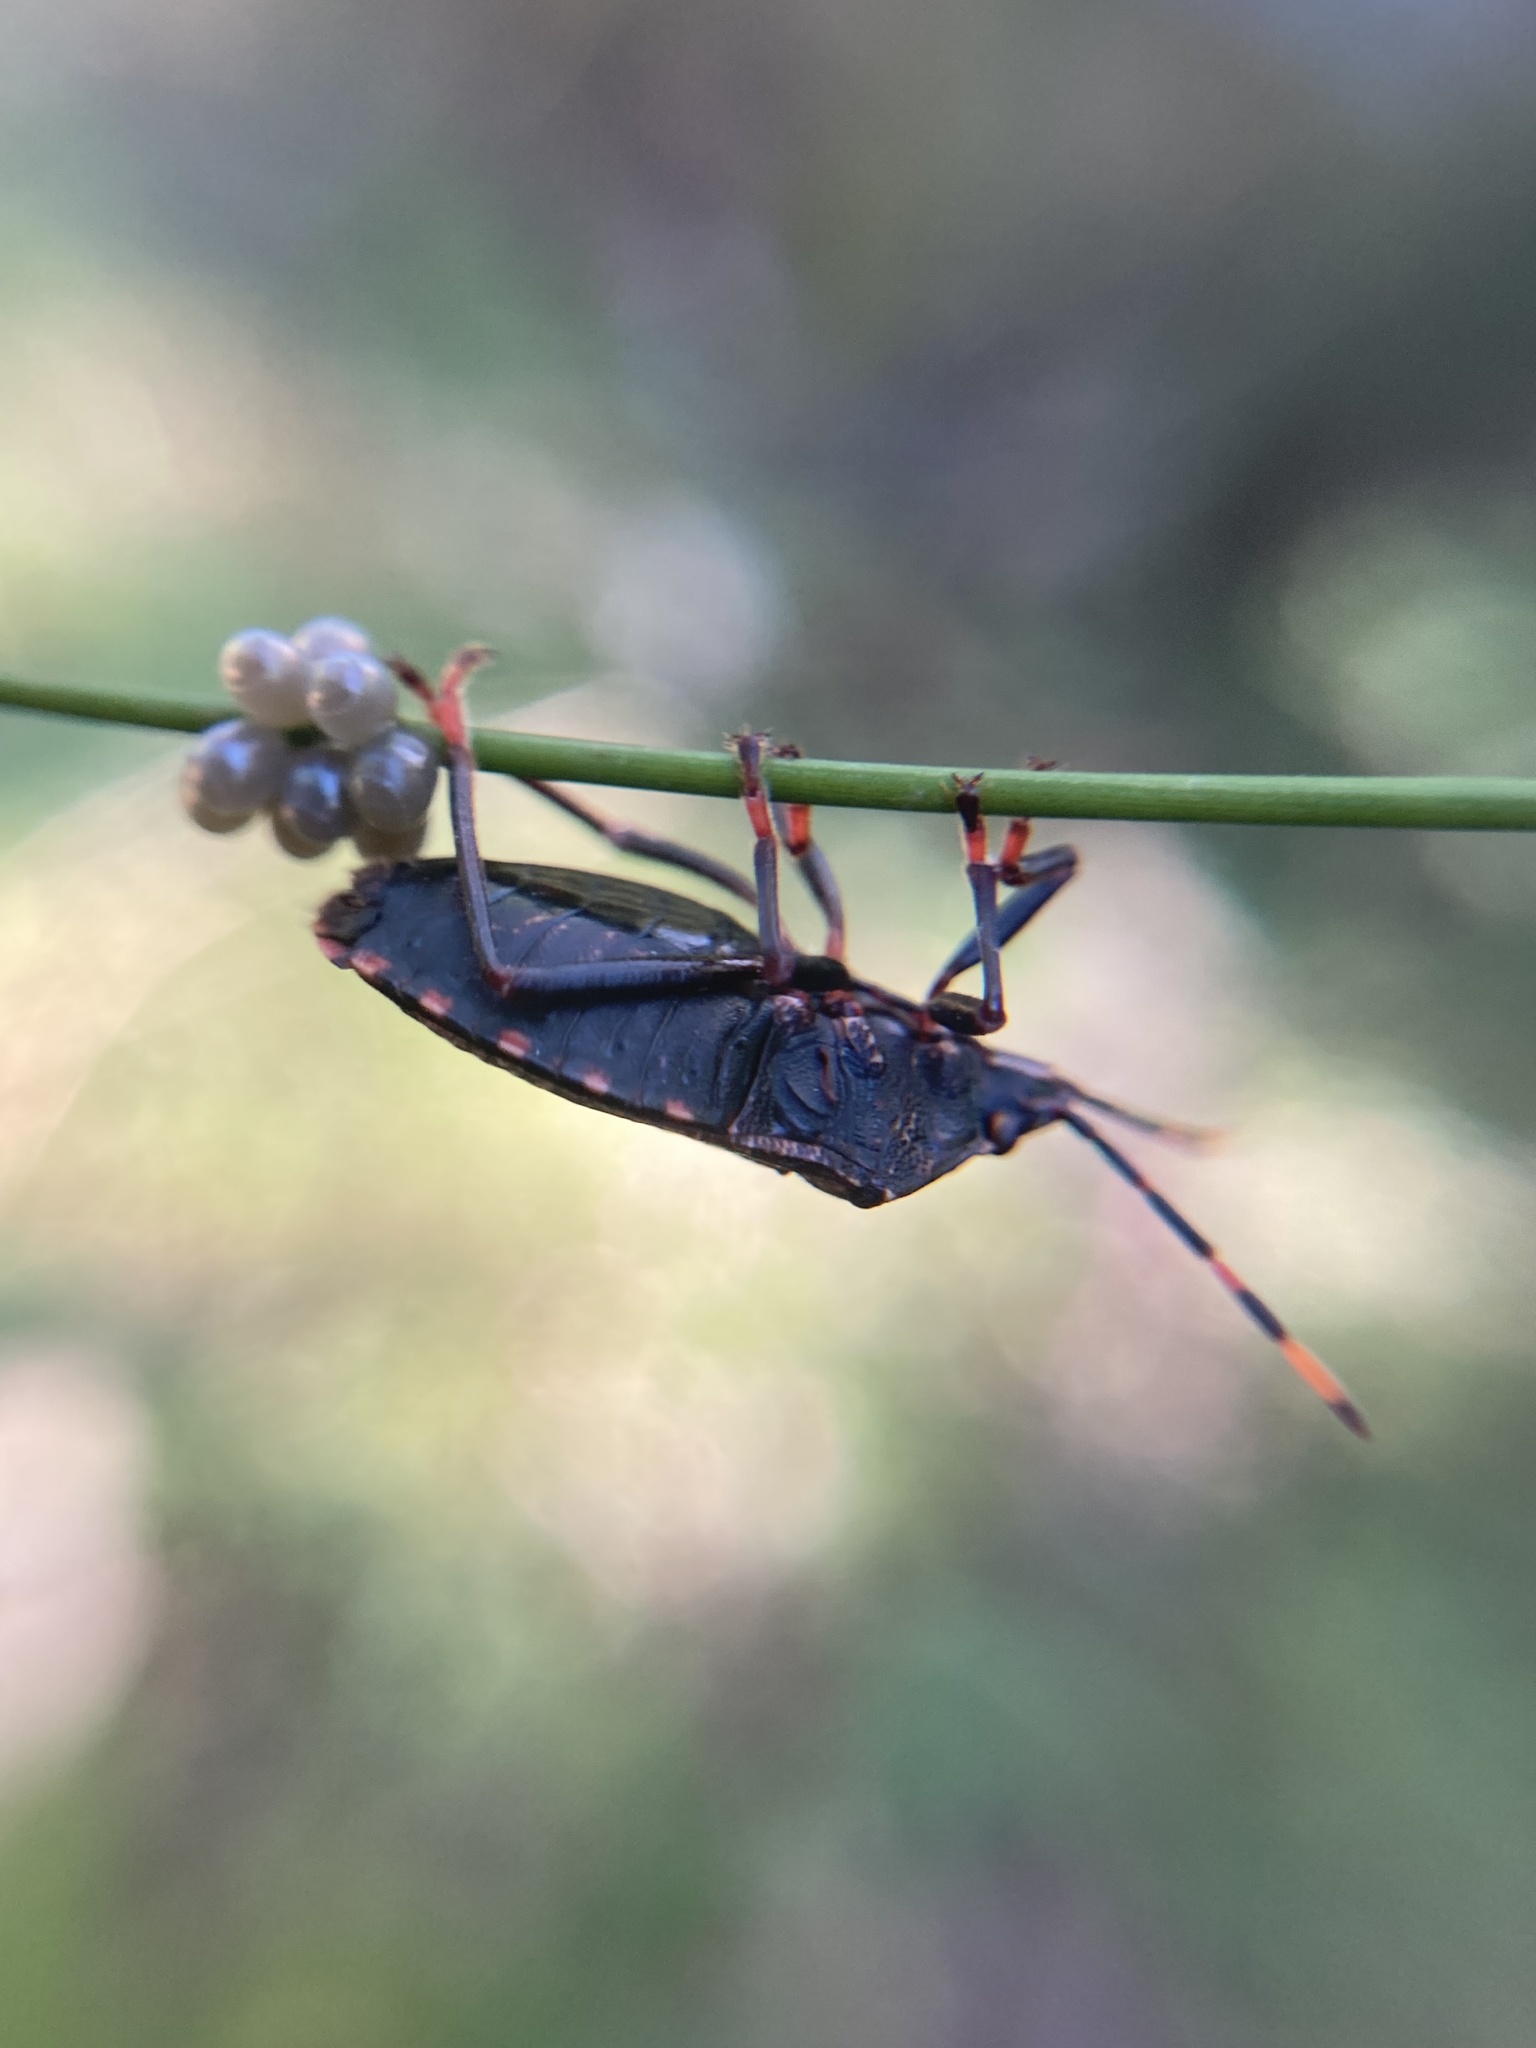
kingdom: Animalia
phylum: Arthropoda
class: Insecta
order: Hemiptera
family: Pentatomidae
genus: Notius
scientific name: Notius
